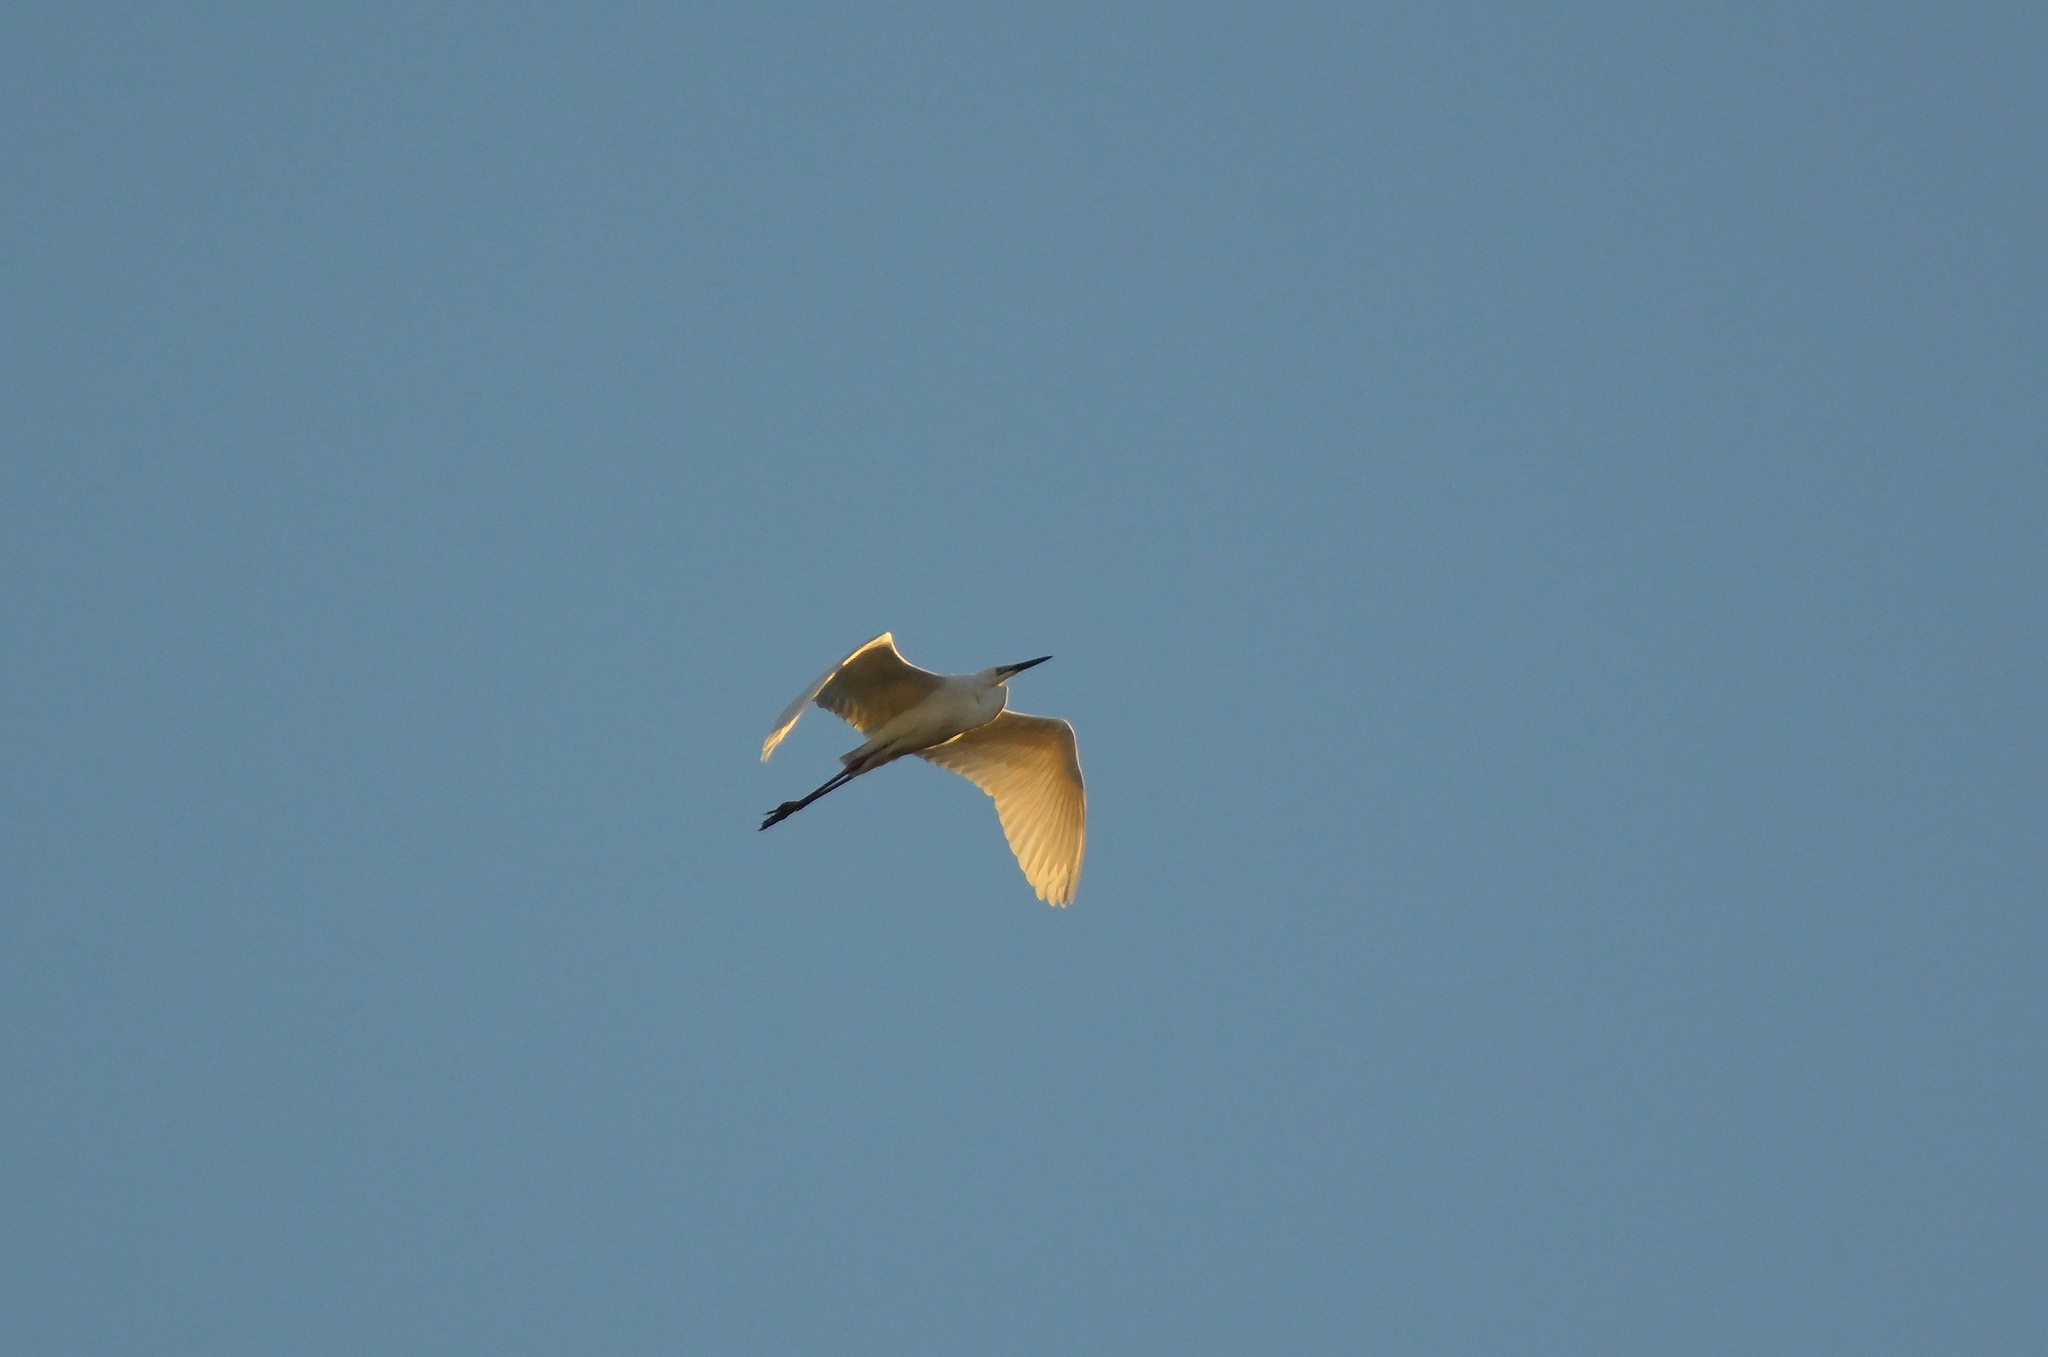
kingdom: Animalia
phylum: Chordata
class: Aves
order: Pelecaniformes
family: Ardeidae
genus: Ardea
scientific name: Ardea alba
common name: Great egret
